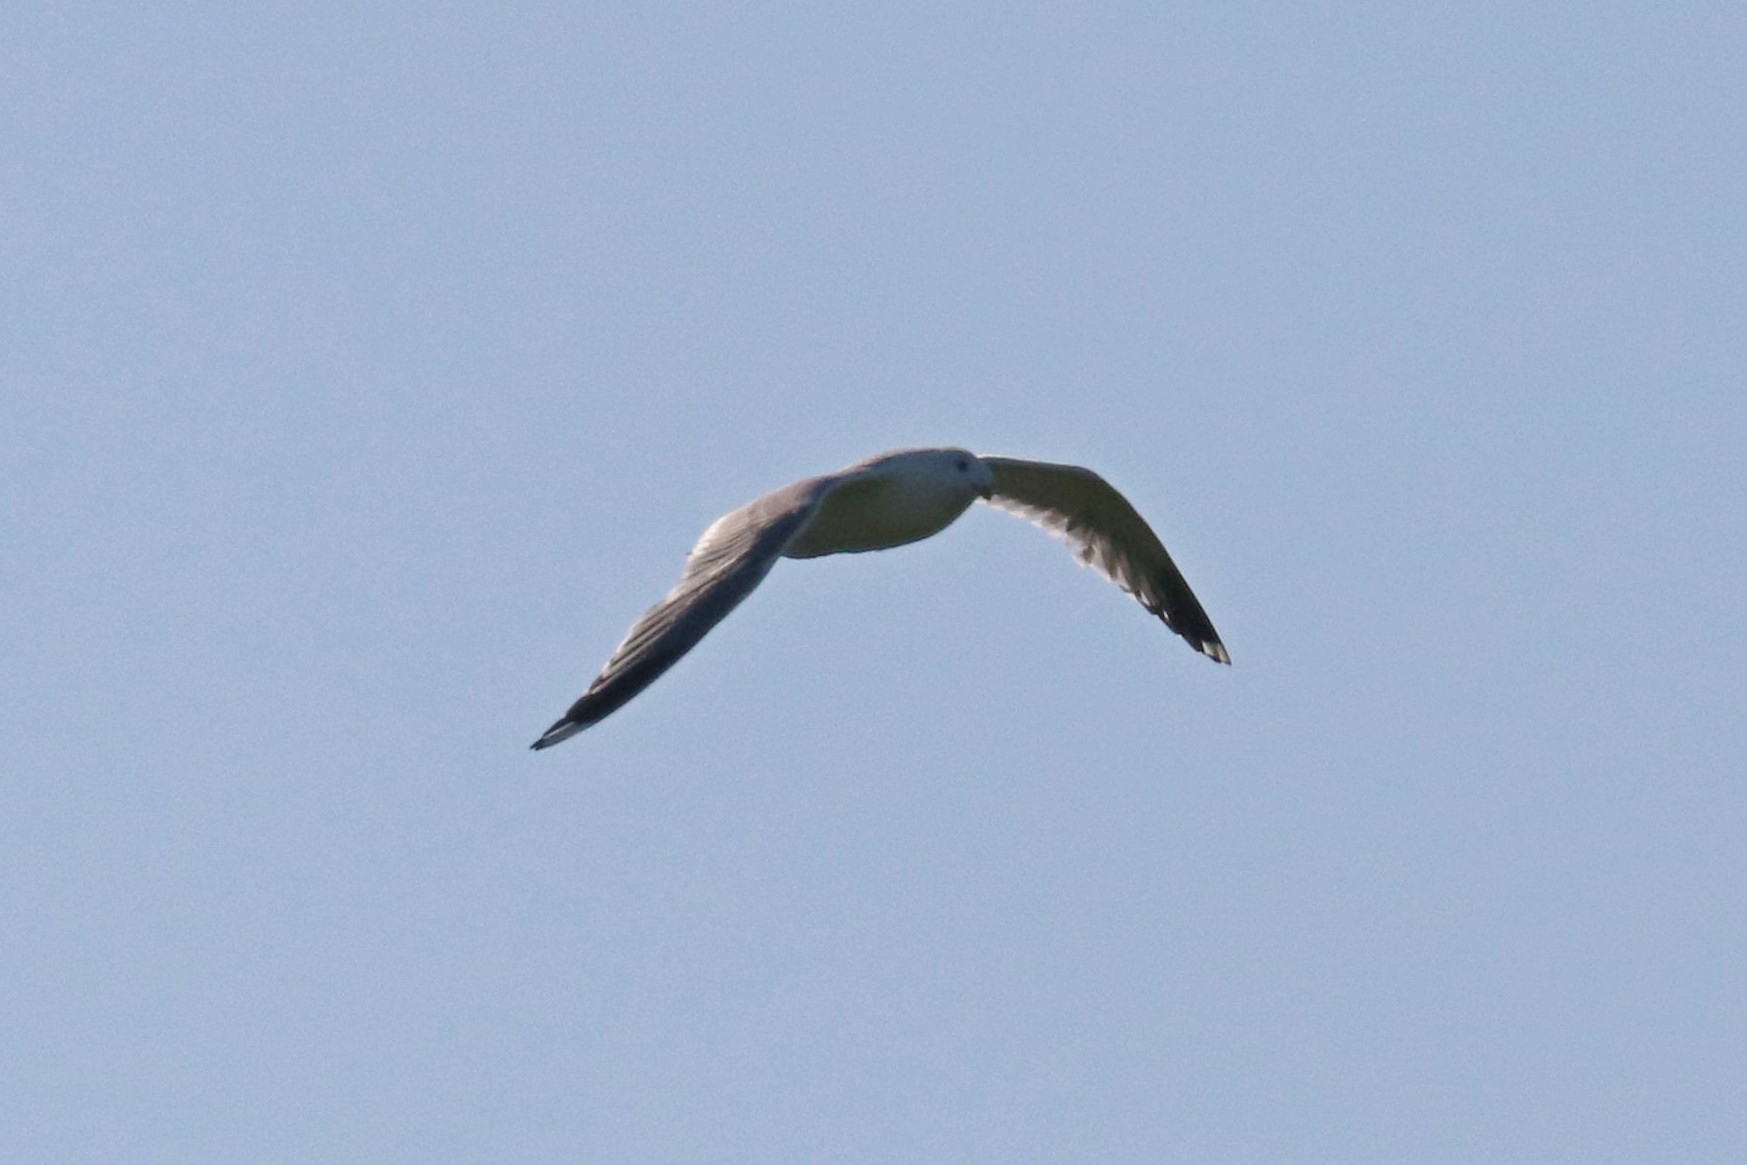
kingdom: Animalia
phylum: Chordata
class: Aves
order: Charadriiformes
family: Laridae
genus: Larus
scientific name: Larus canus
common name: Mew gull
